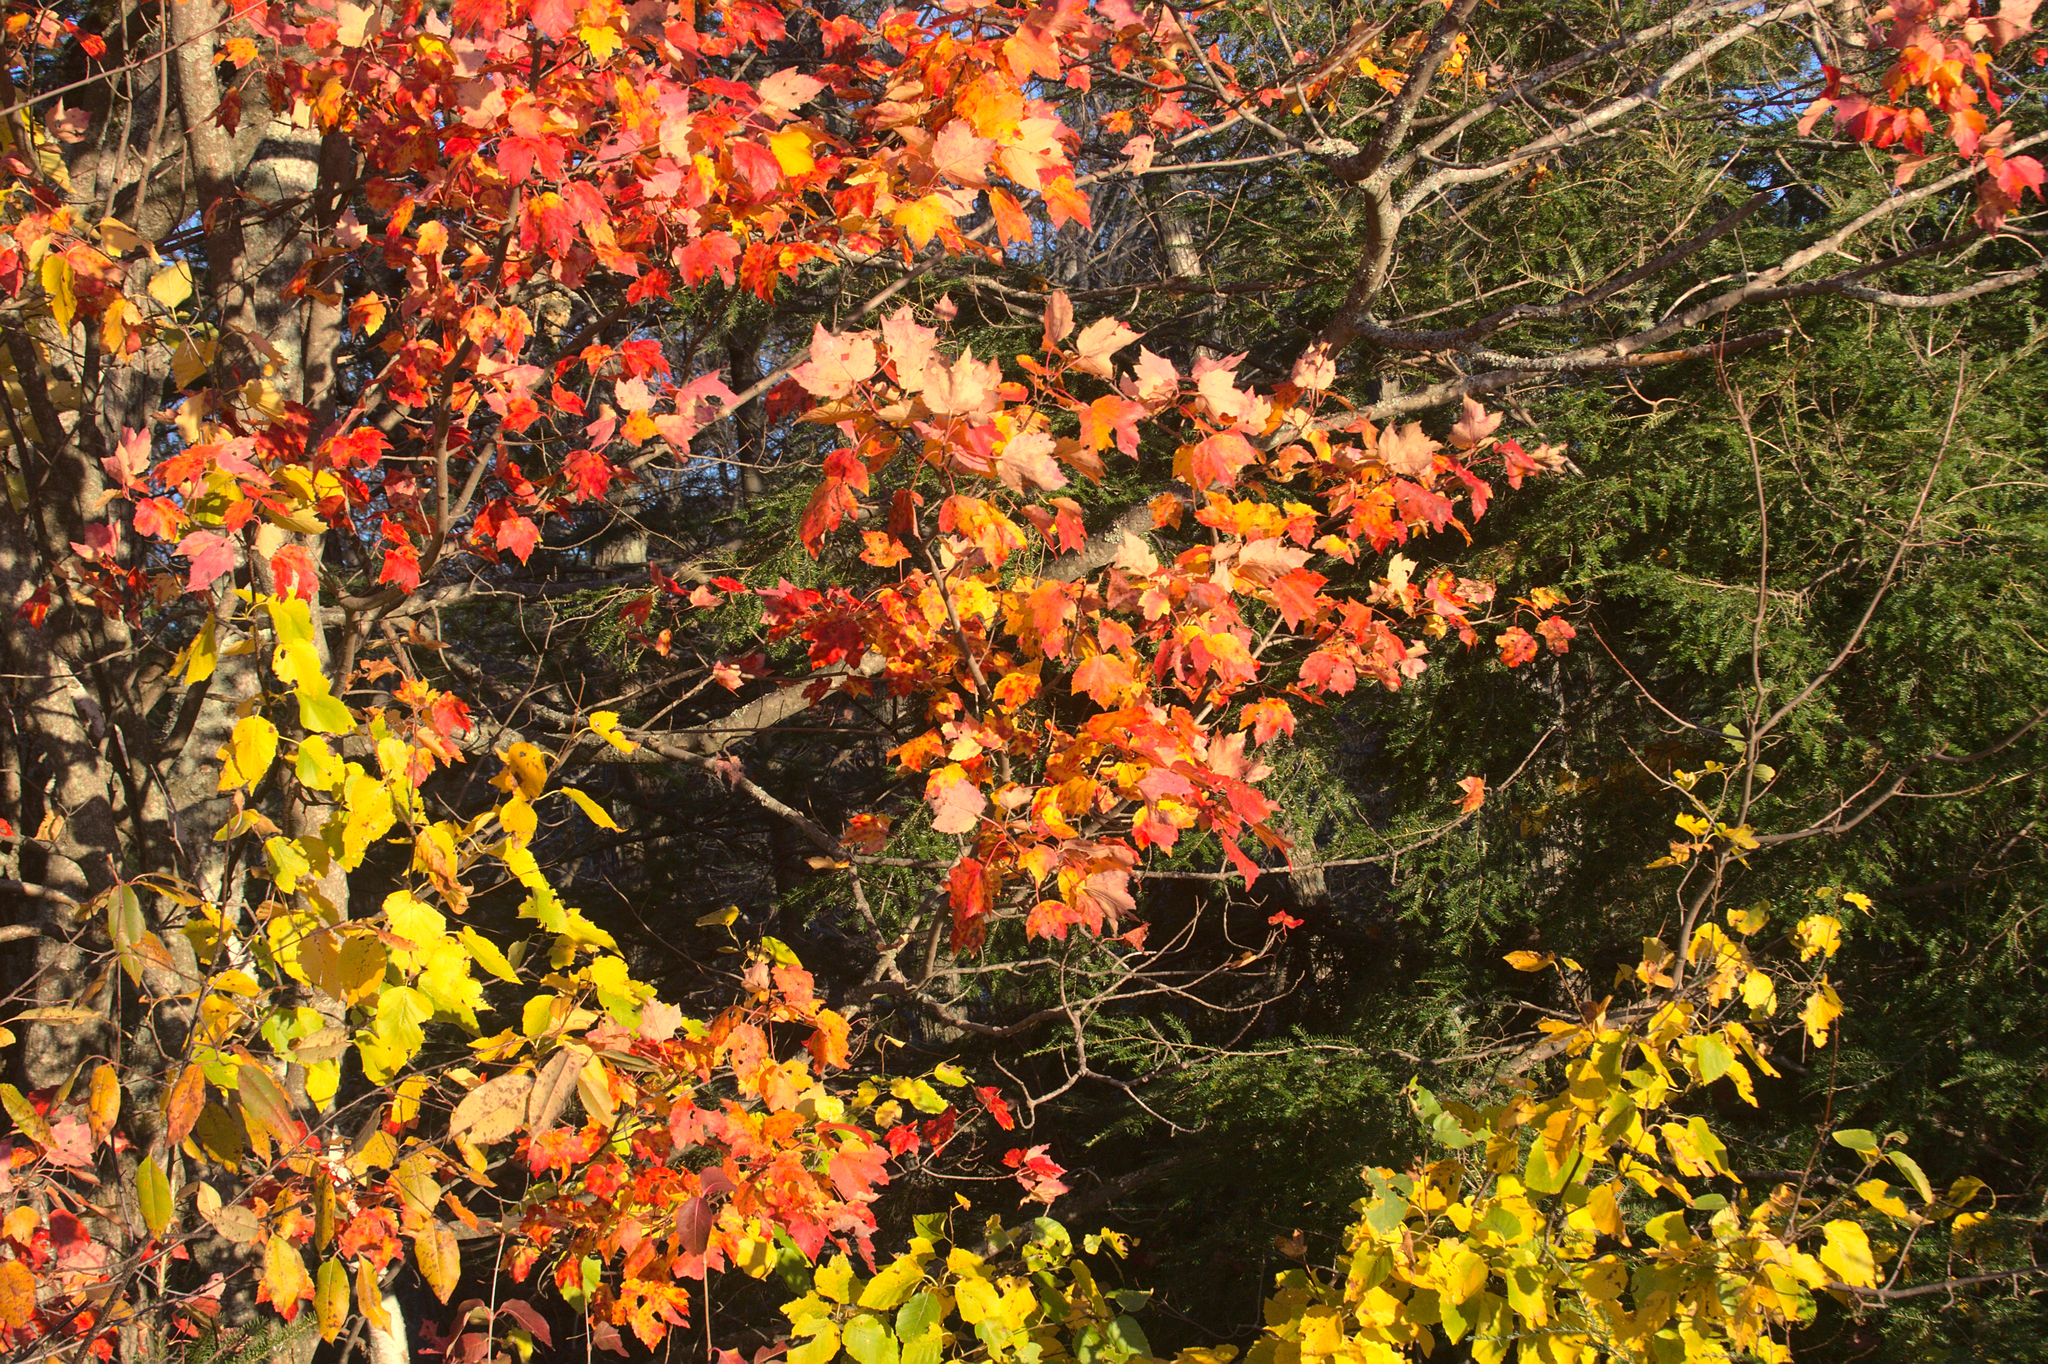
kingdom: Plantae
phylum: Tracheophyta
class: Magnoliopsida
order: Sapindales
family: Sapindaceae
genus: Acer
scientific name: Acer rubrum
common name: Red maple
